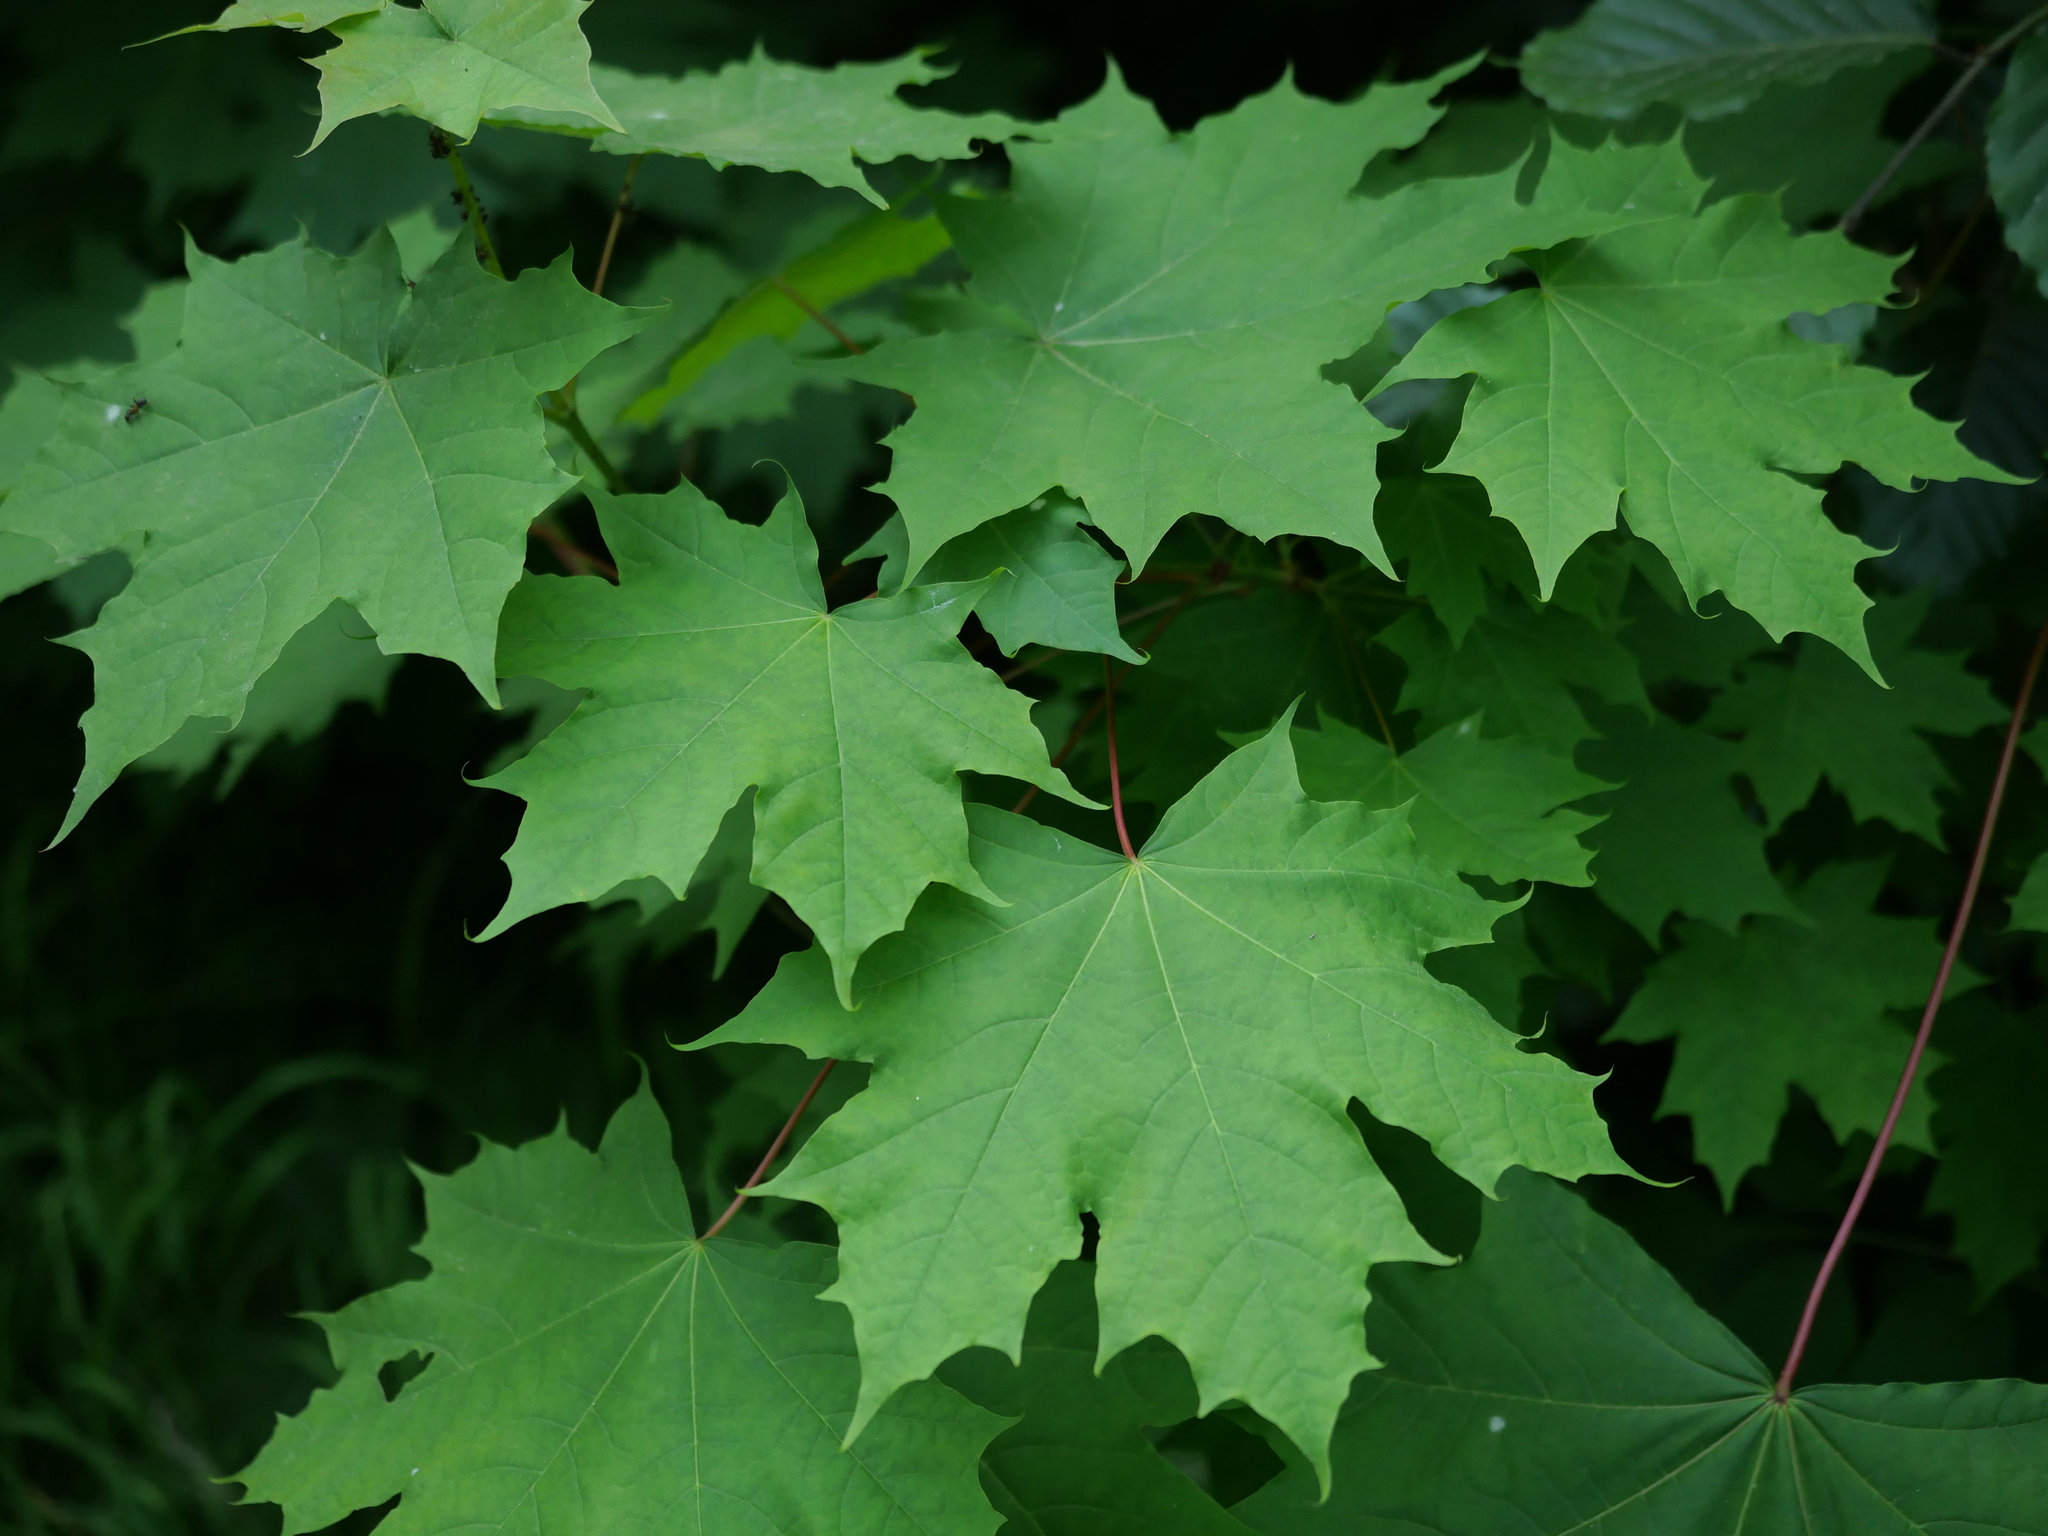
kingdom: Plantae
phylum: Tracheophyta
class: Magnoliopsida
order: Sapindales
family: Sapindaceae
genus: Acer
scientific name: Acer platanoides
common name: Norway maple
